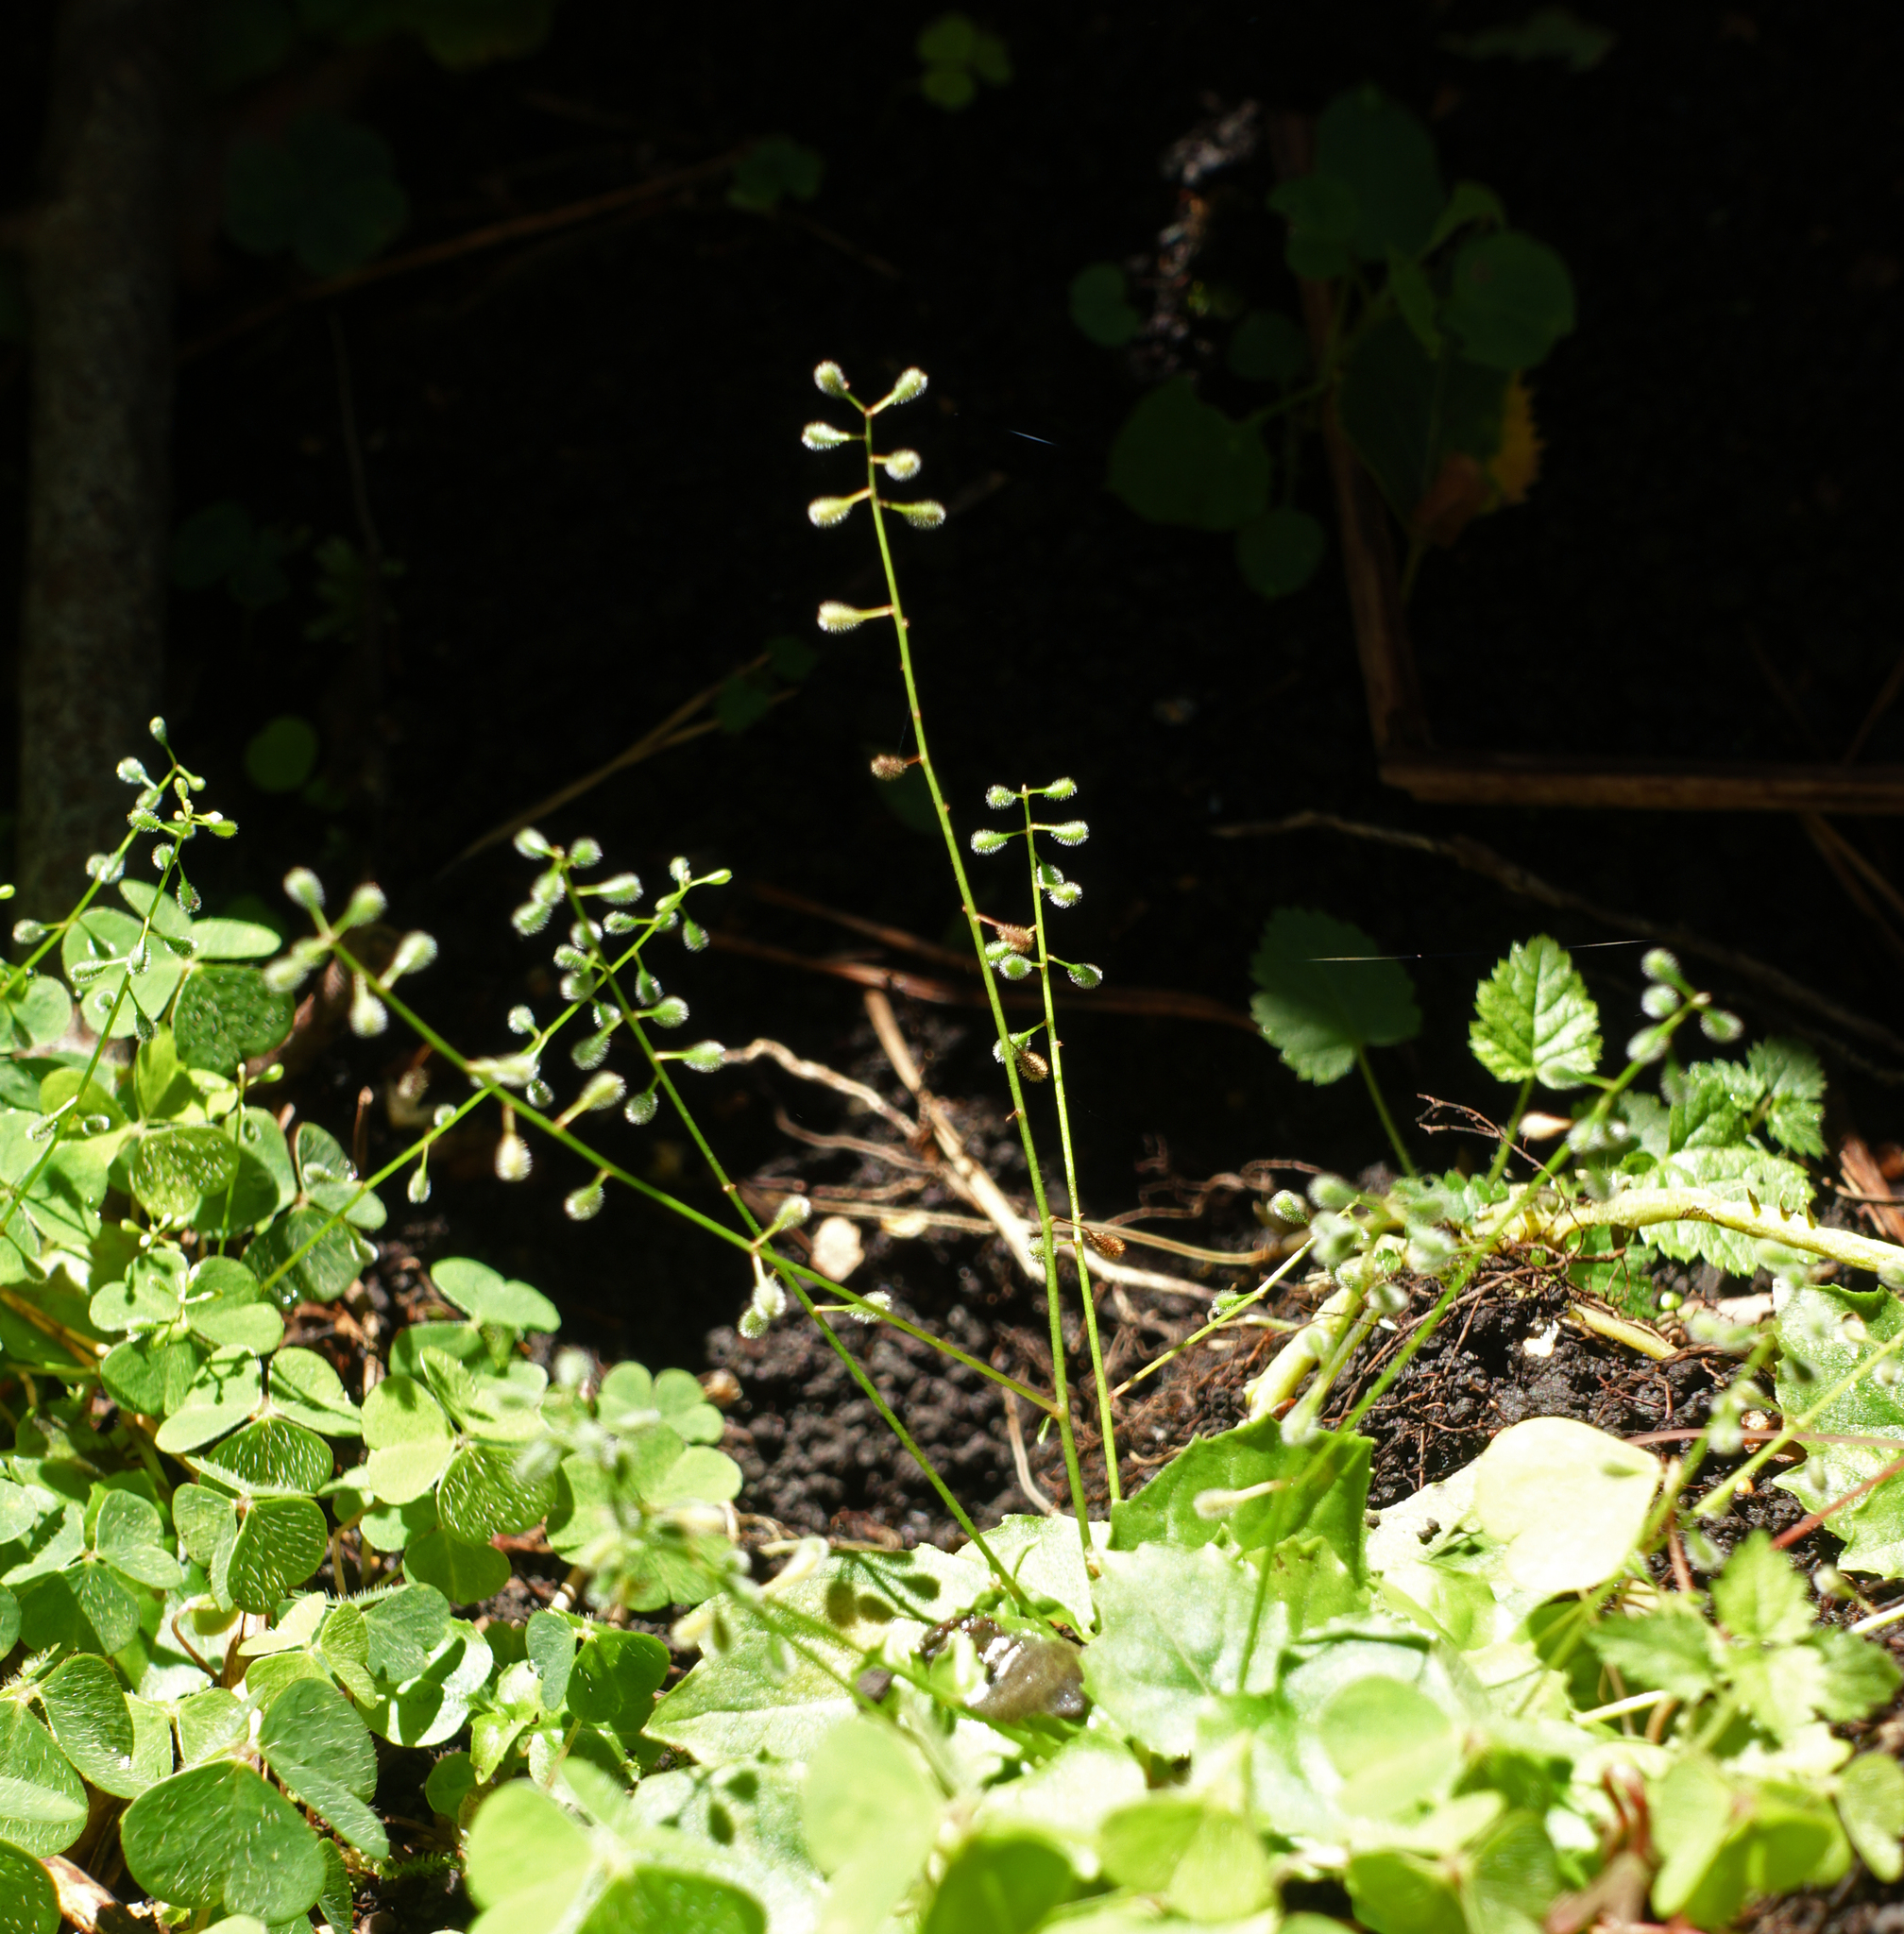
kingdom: Plantae
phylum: Tracheophyta
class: Magnoliopsida
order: Myrtales
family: Onagraceae
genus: Circaea
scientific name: Circaea alpina
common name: Alpine enchanter's-nightshade
